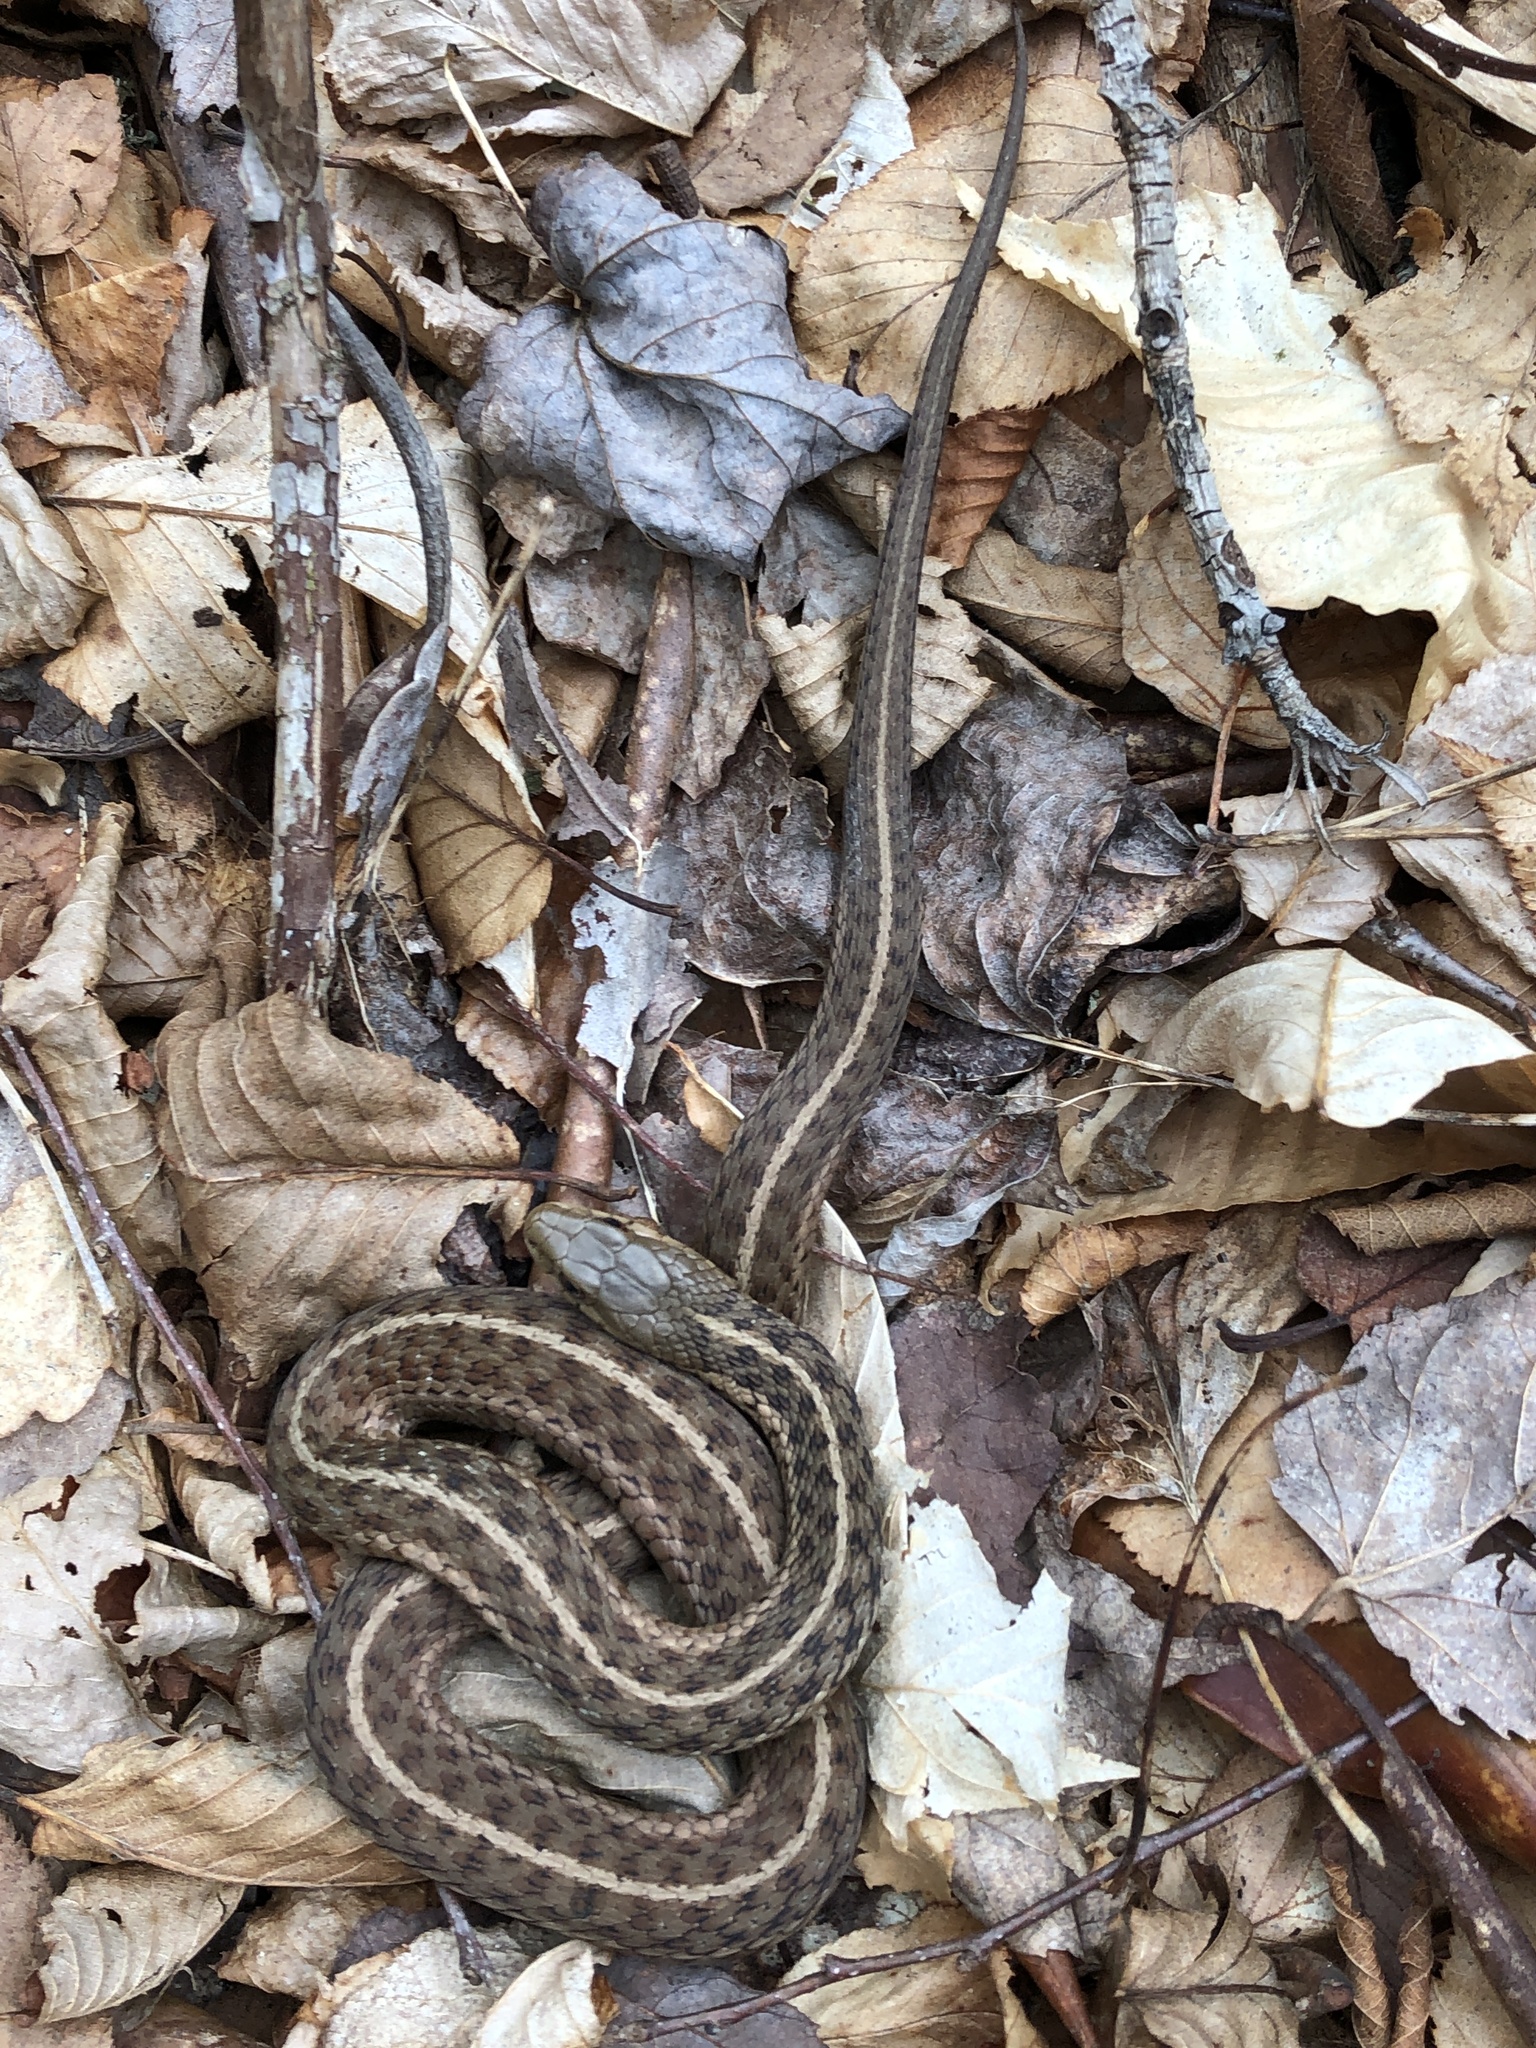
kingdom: Animalia
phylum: Chordata
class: Squamata
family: Colubridae
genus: Thamnophis
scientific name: Thamnophis sirtalis
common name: Common garter snake
